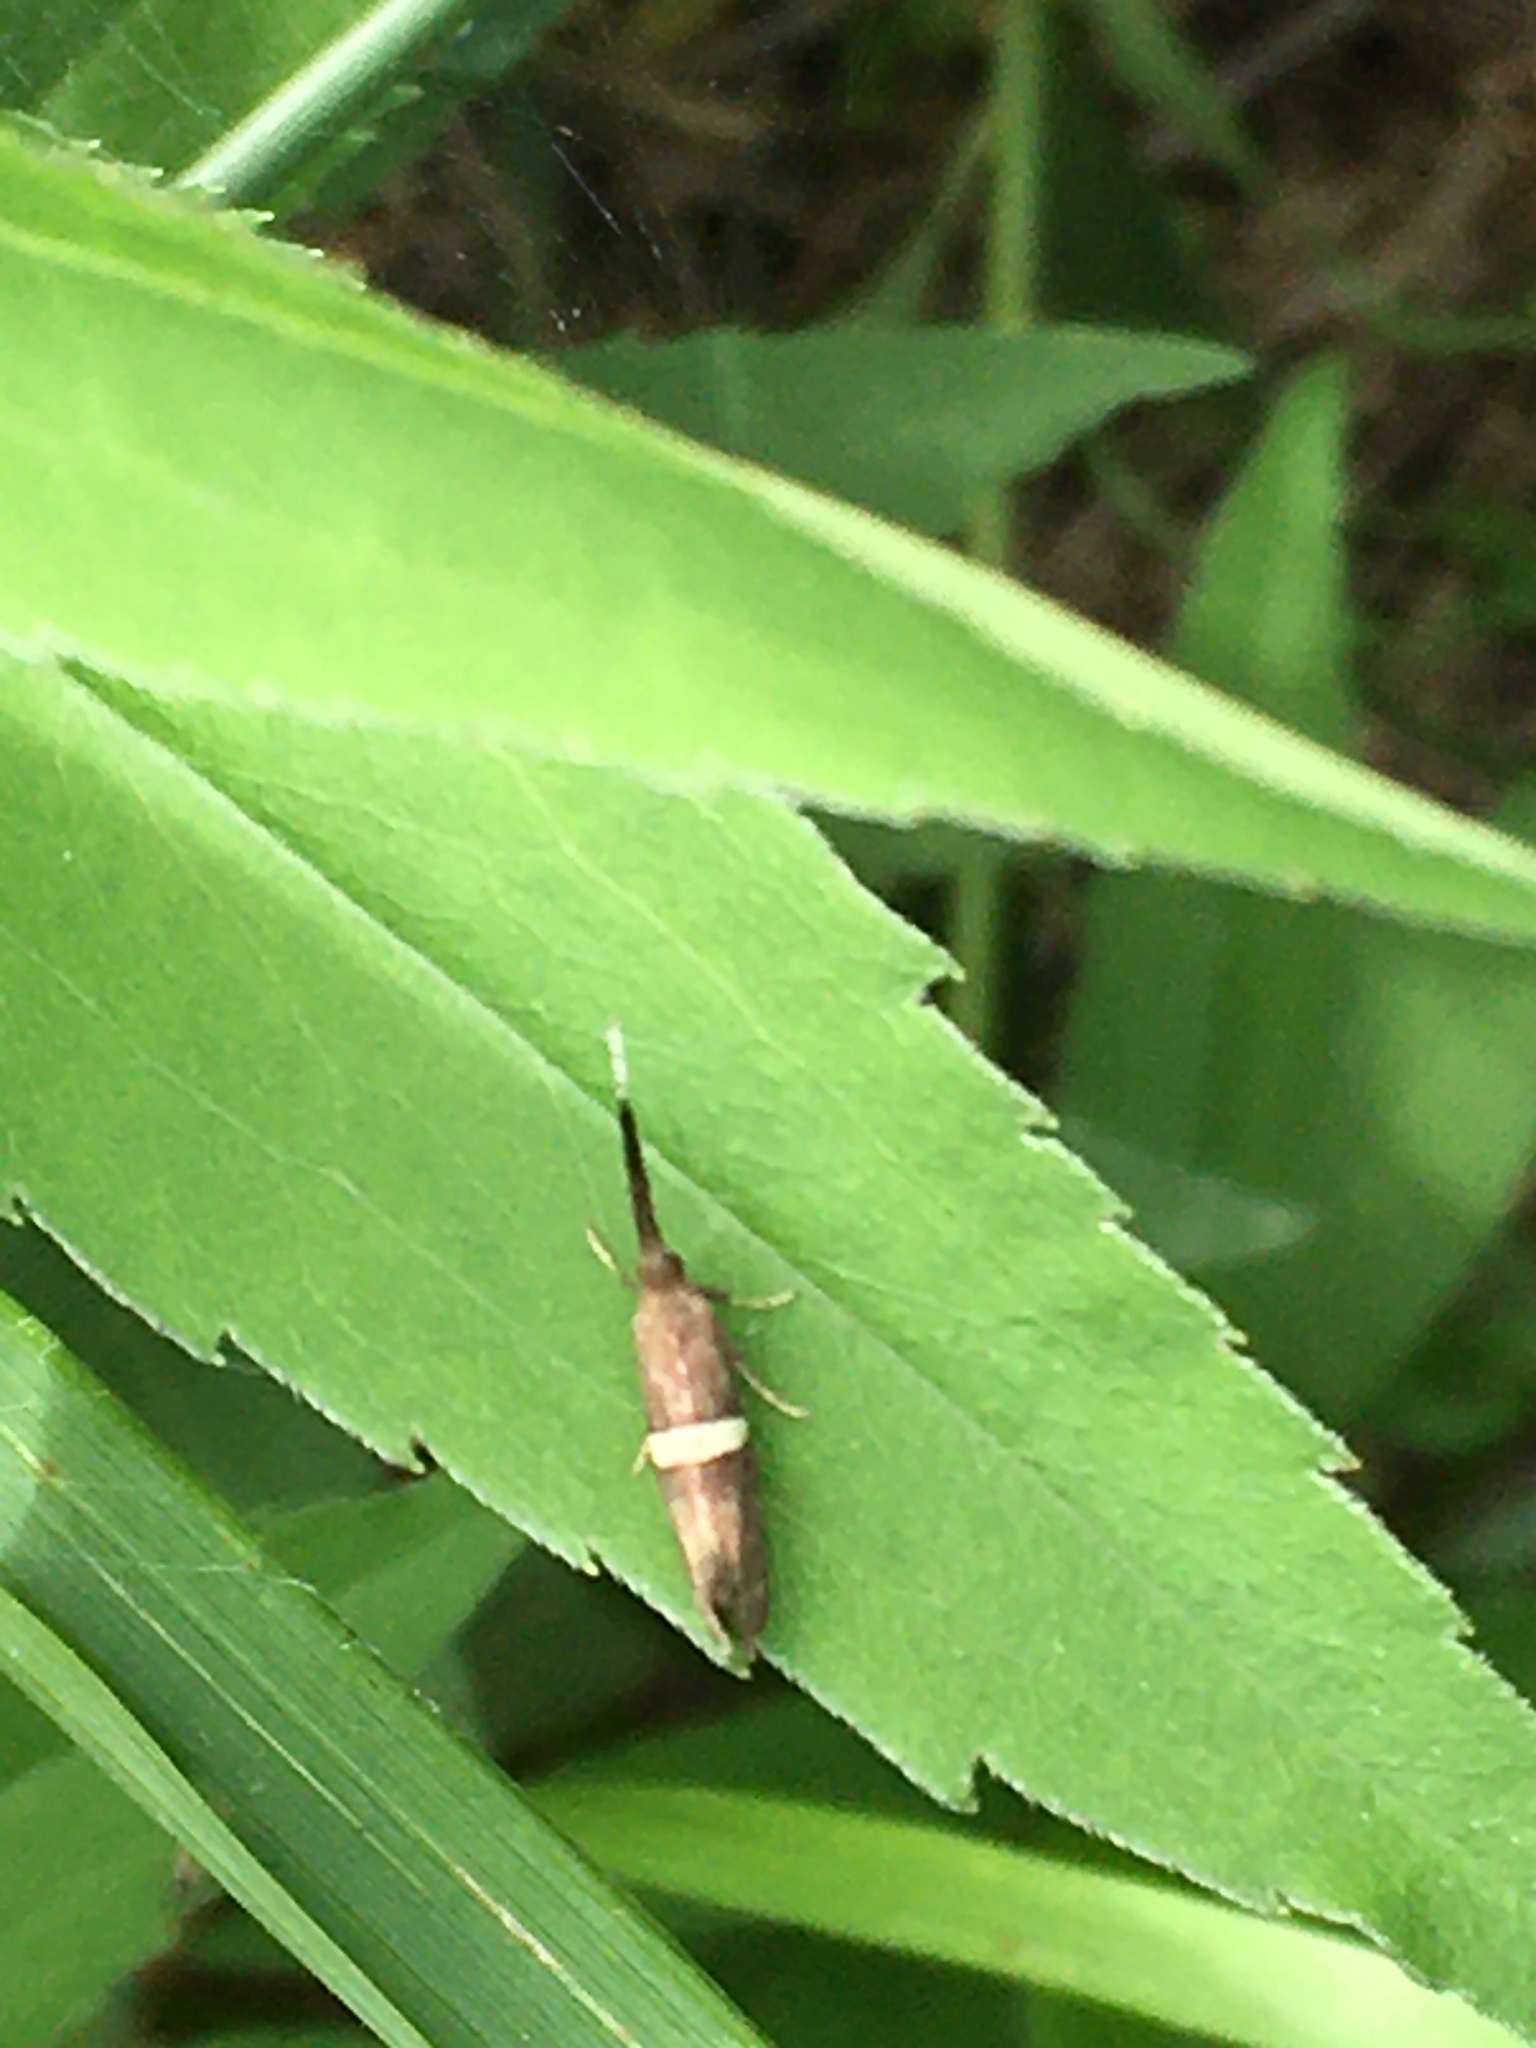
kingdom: Animalia
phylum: Arthropoda
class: Insecta
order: Lepidoptera
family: Plutellidae
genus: Eidophasia
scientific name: Eidophasia messingiella
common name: Bitter-cress smudge
